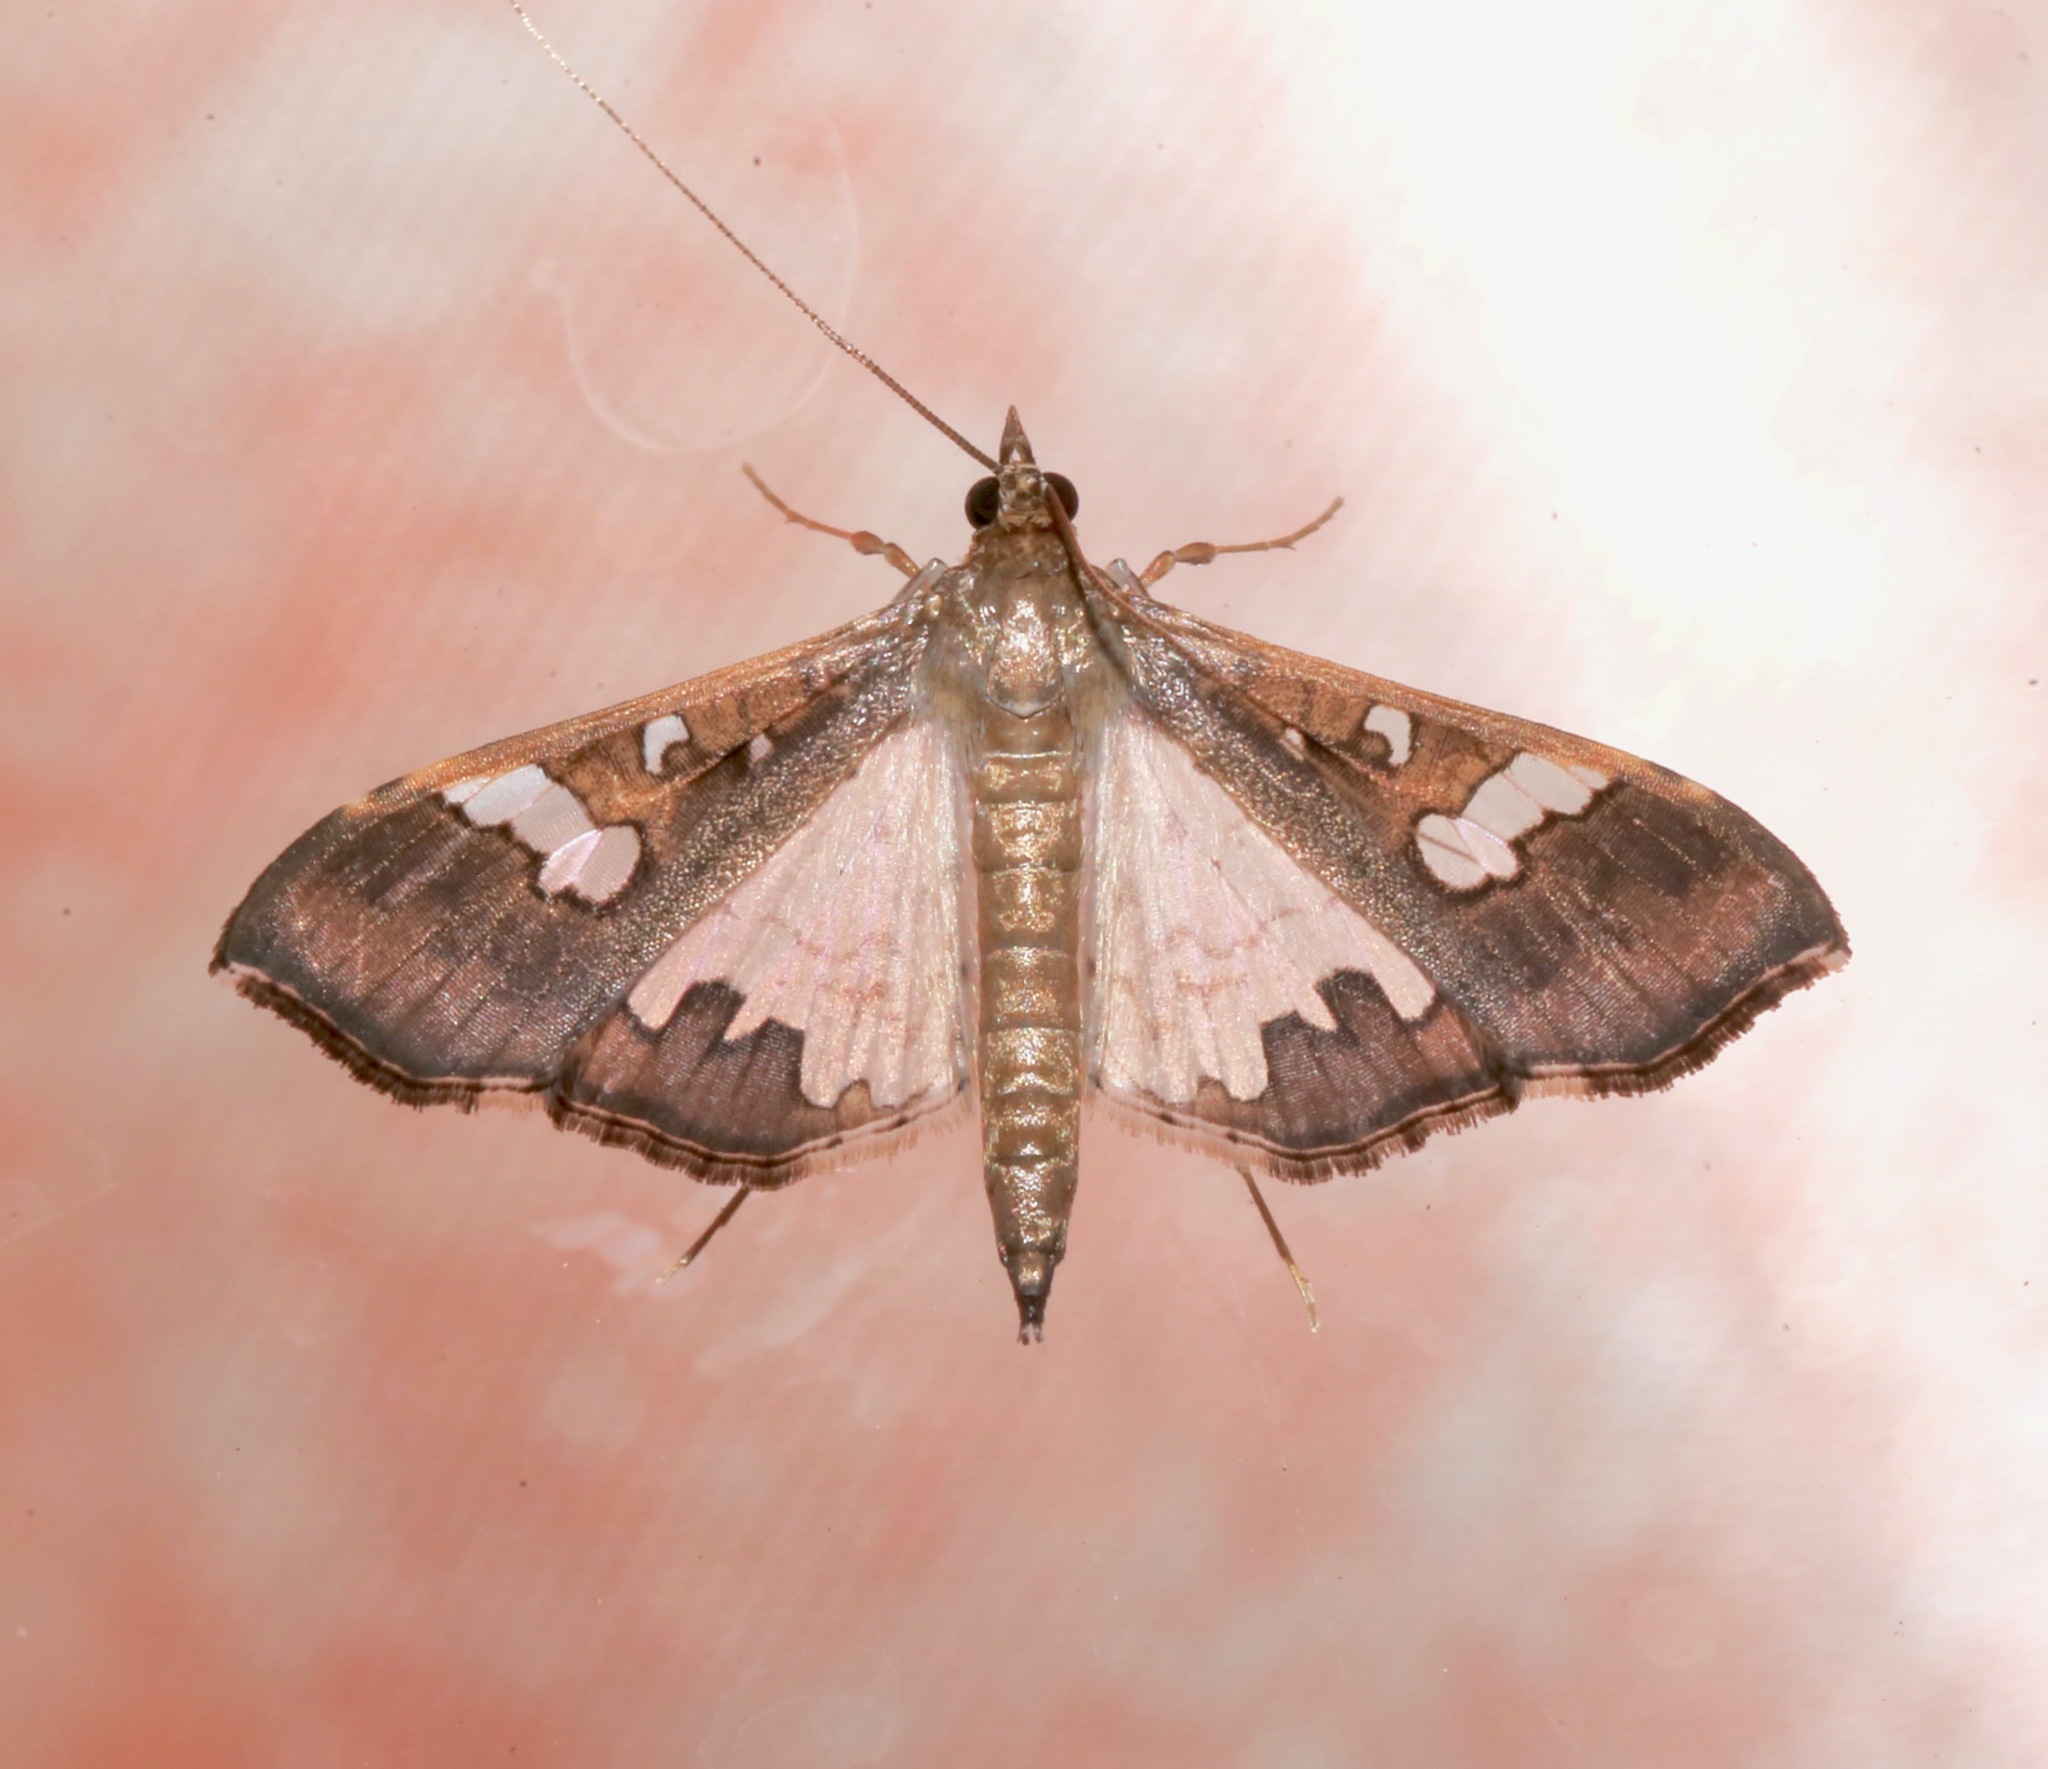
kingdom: Animalia
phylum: Arthropoda
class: Insecta
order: Lepidoptera
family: Crambidae
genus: Maruca
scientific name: Maruca vitrata
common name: Maruca pod borer
